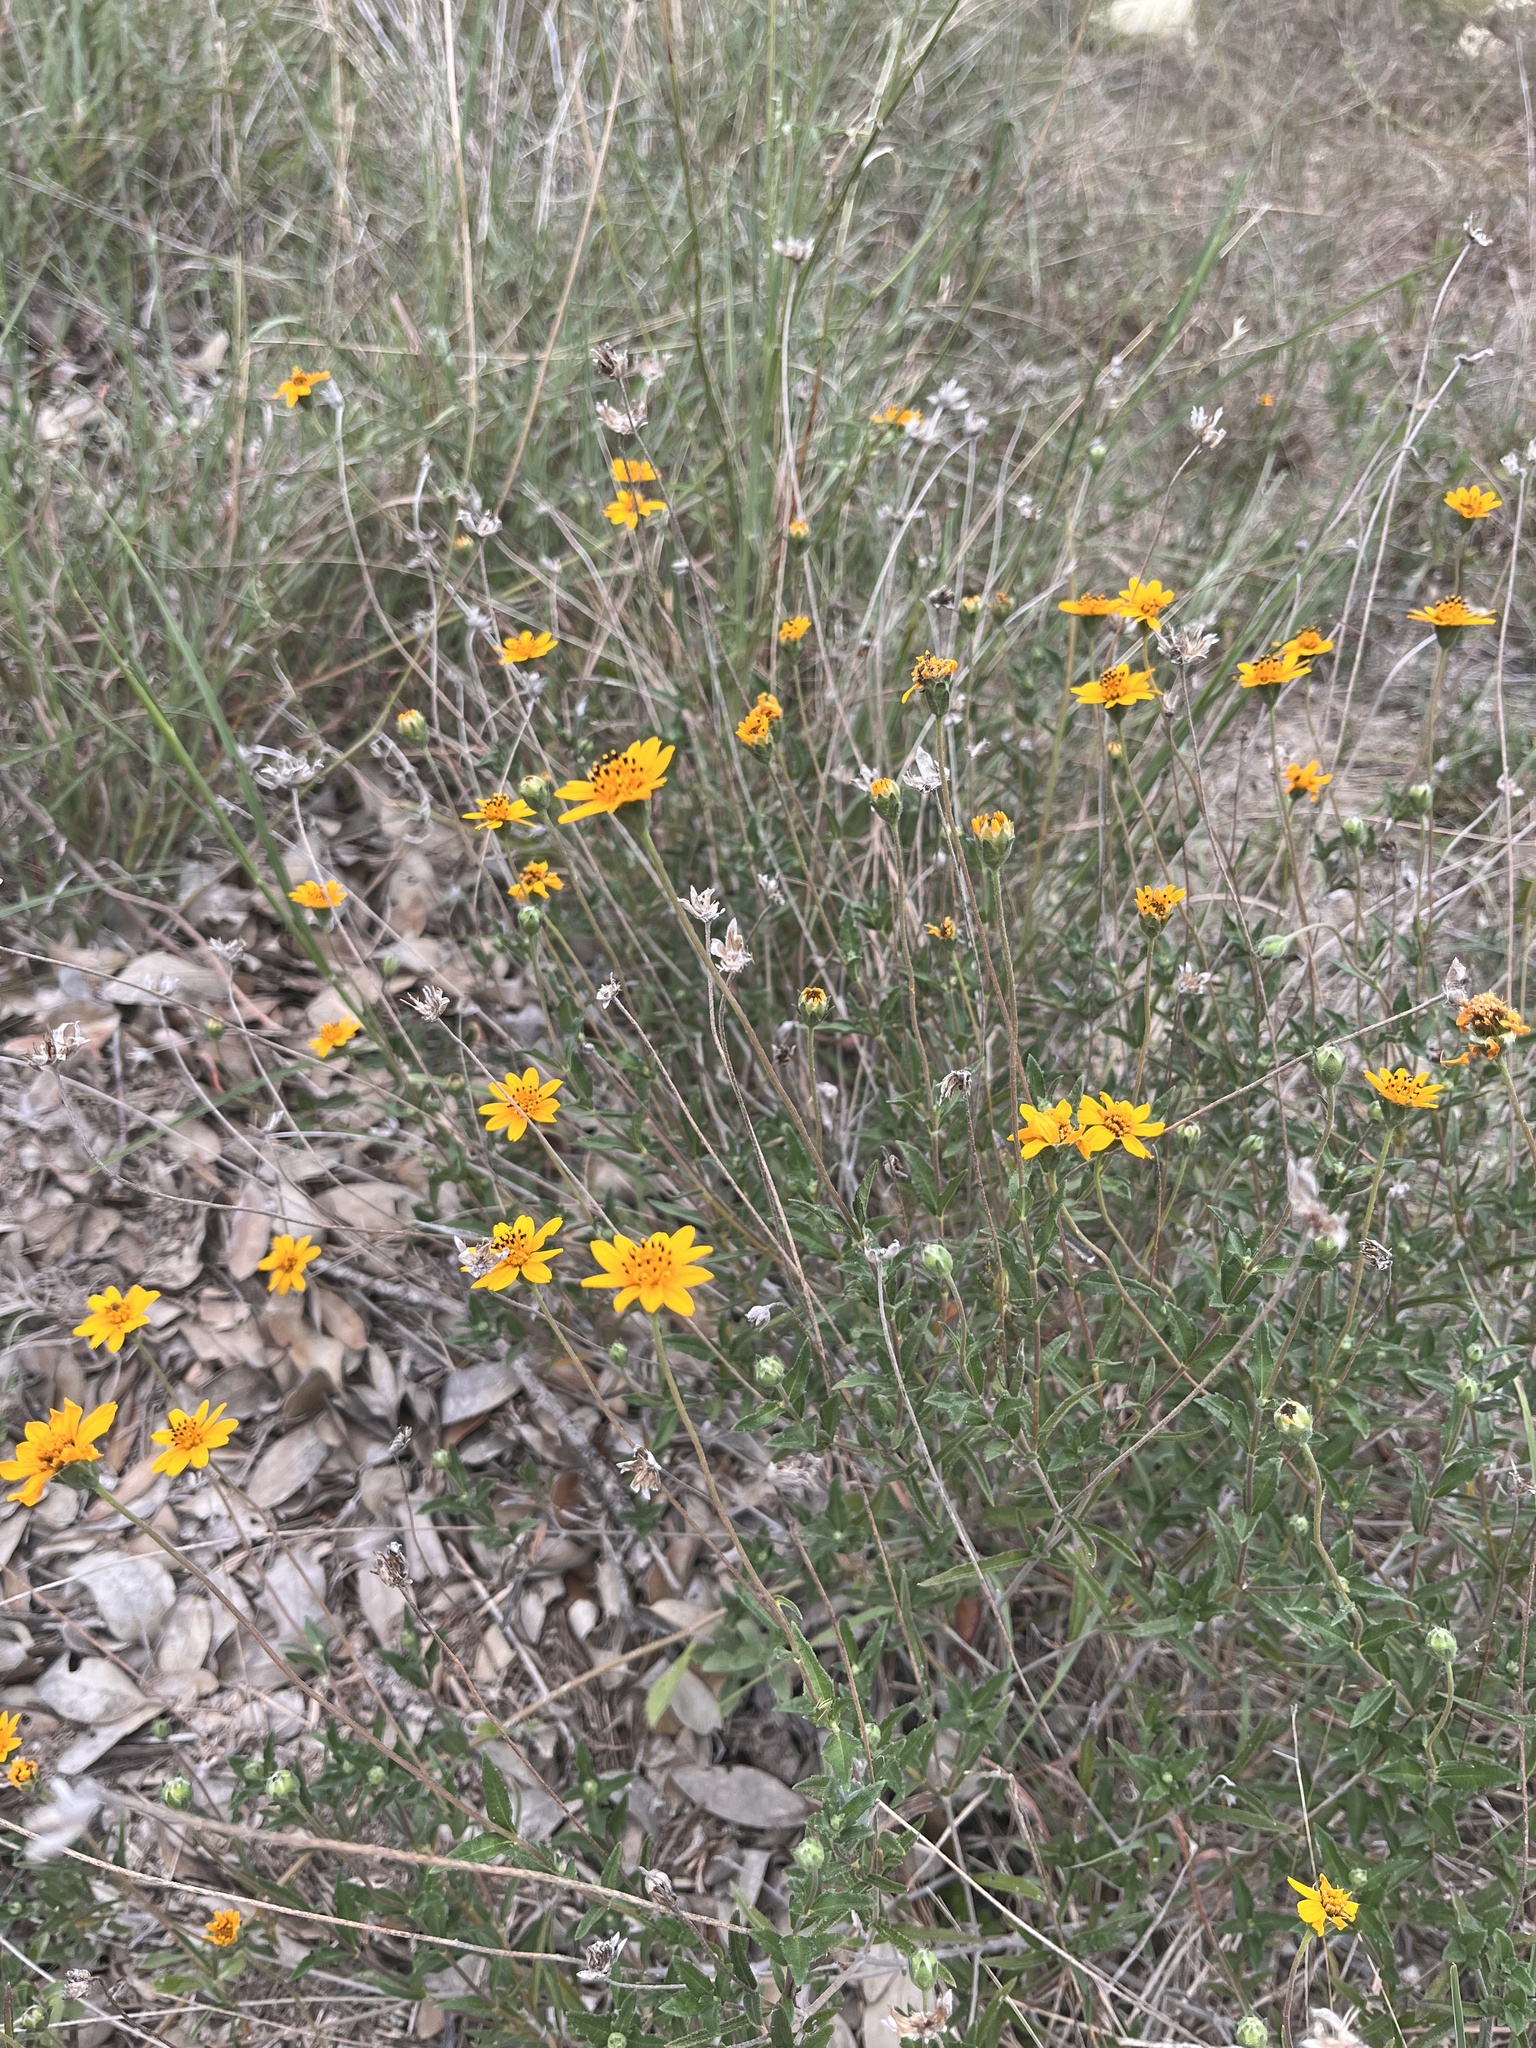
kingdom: Plantae
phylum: Tracheophyta
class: Magnoliopsida
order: Asterales
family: Asteraceae
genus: Wedelia
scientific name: Wedelia acapulcensis
